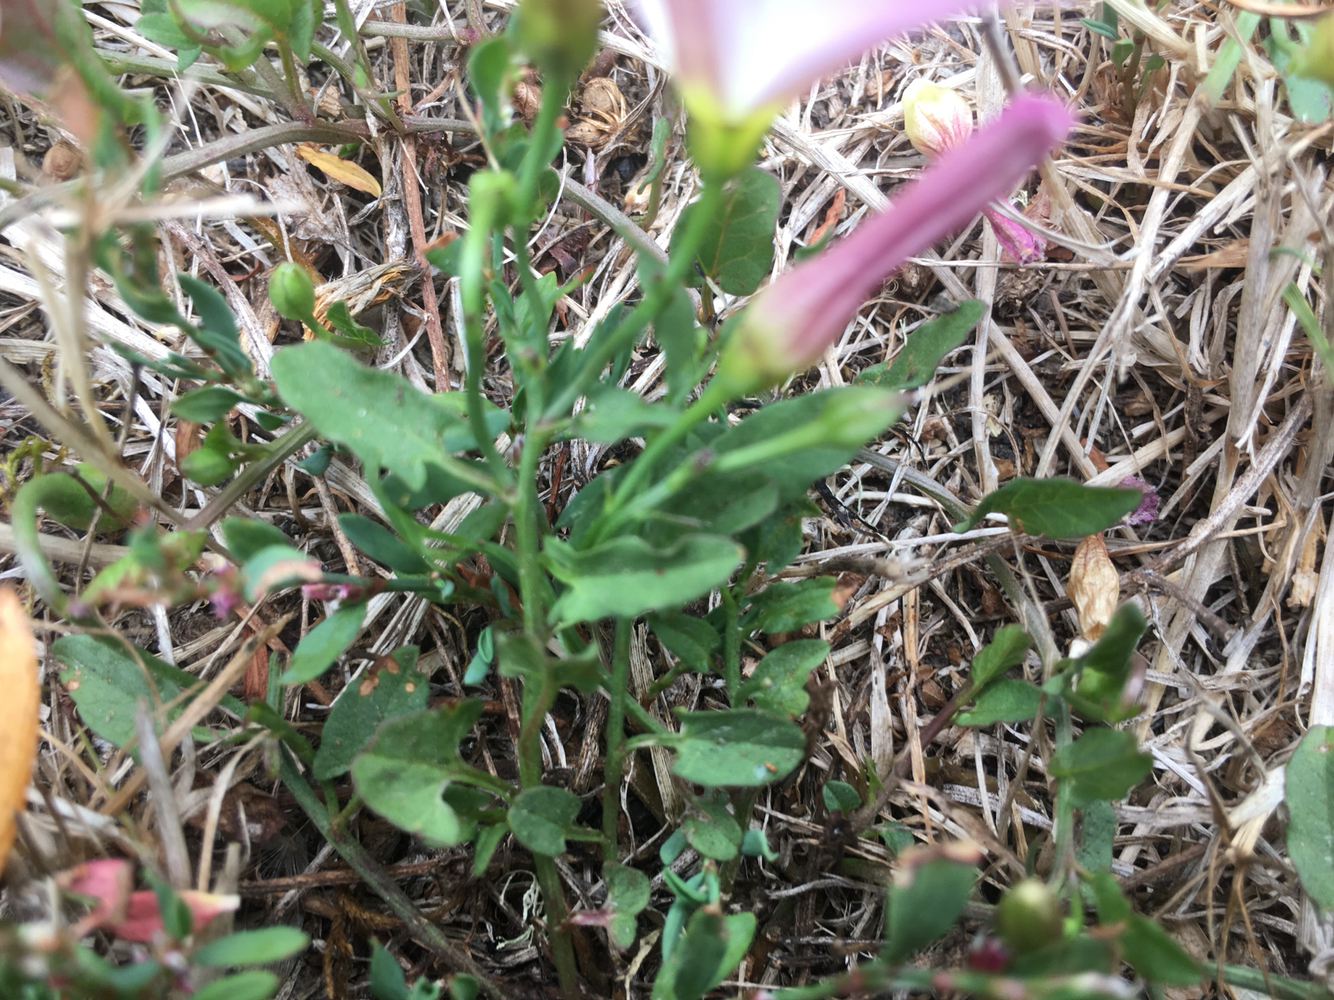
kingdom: Plantae
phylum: Tracheophyta
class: Magnoliopsida
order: Solanales
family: Convolvulaceae
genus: Convolvulus
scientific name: Convolvulus arvensis
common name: Field bindweed
